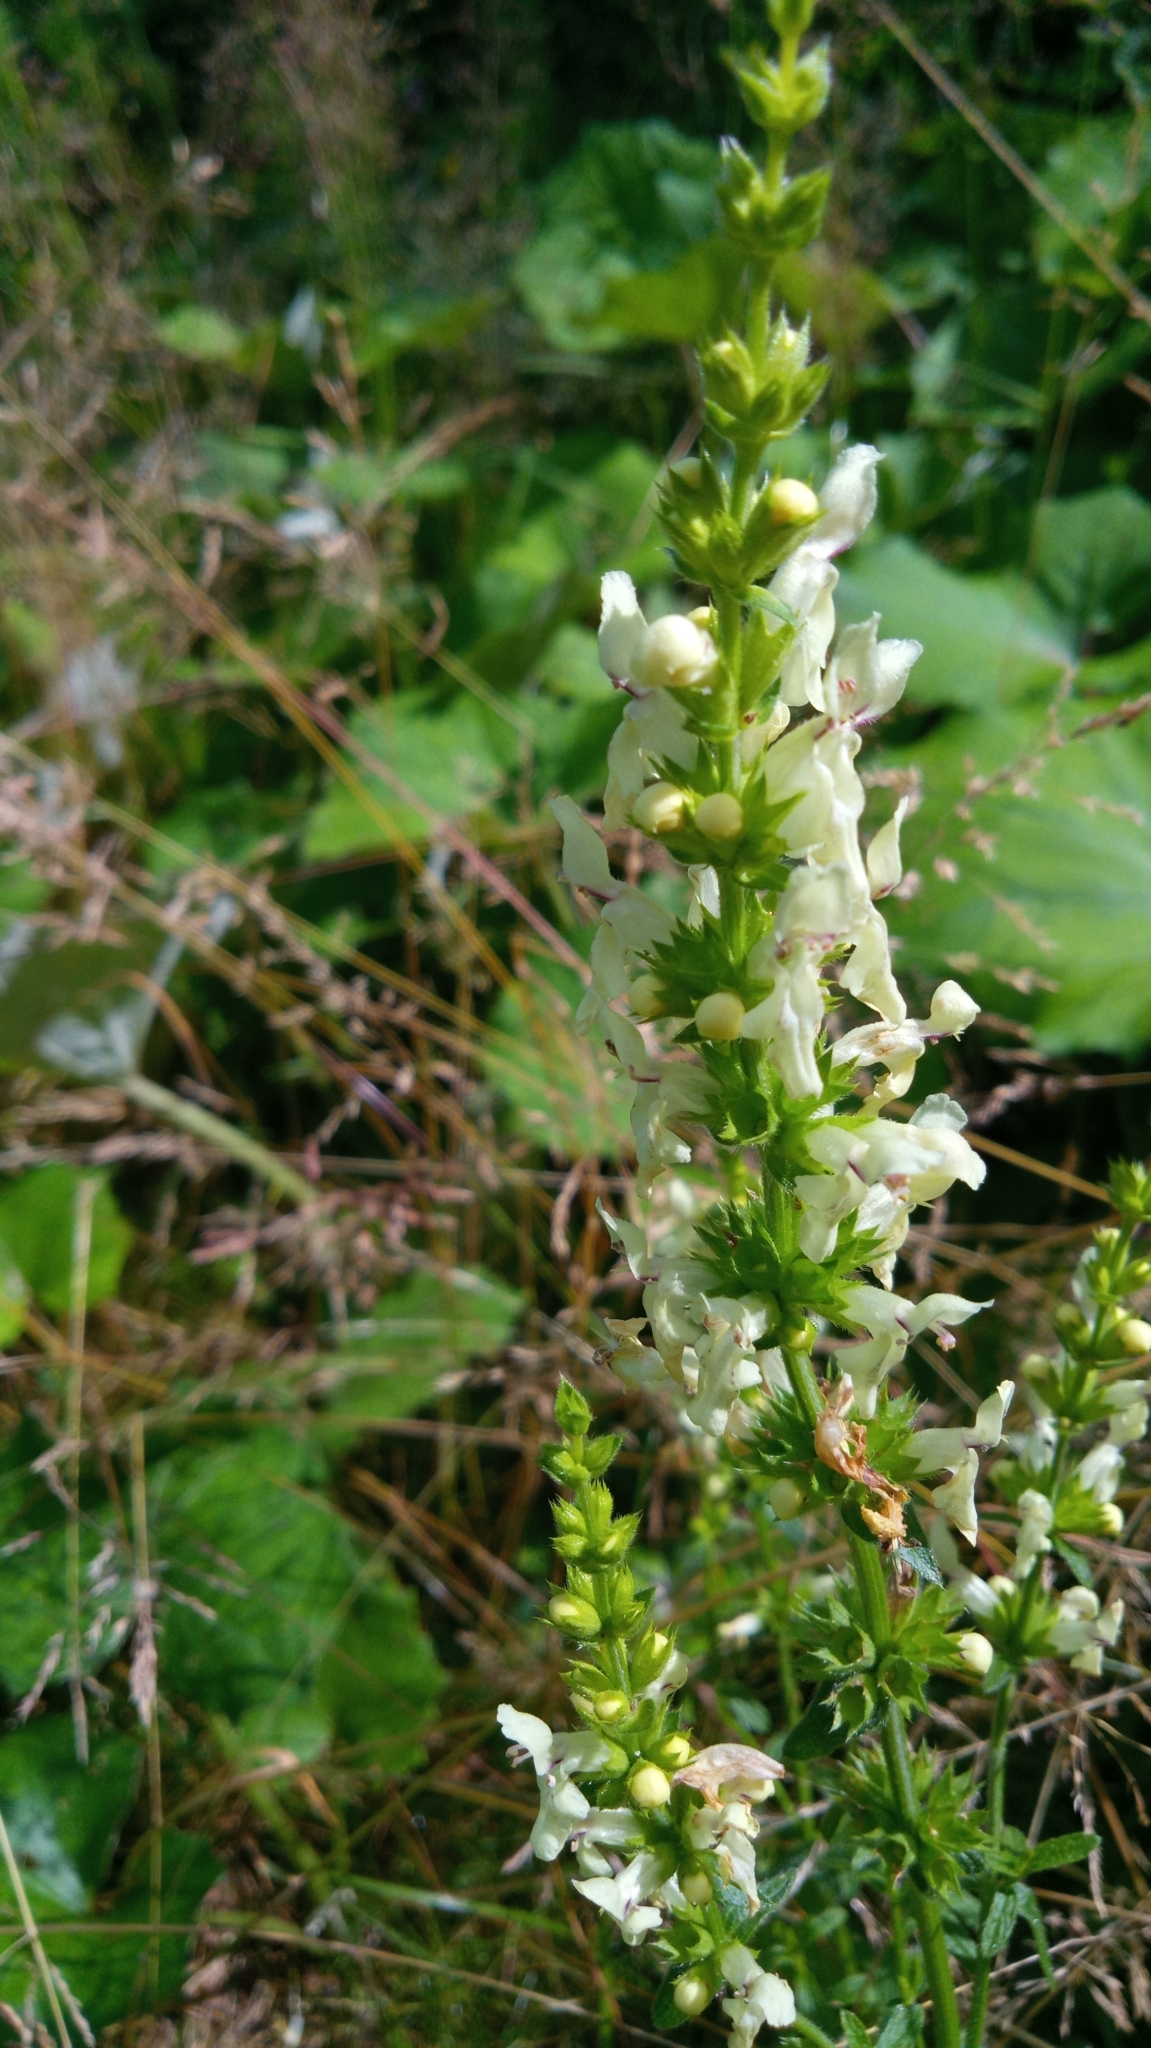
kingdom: Plantae
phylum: Tracheophyta
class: Magnoliopsida
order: Lamiales
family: Lamiaceae
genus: Stachys
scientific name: Stachys recta
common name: Perennial yellow-woundwort
